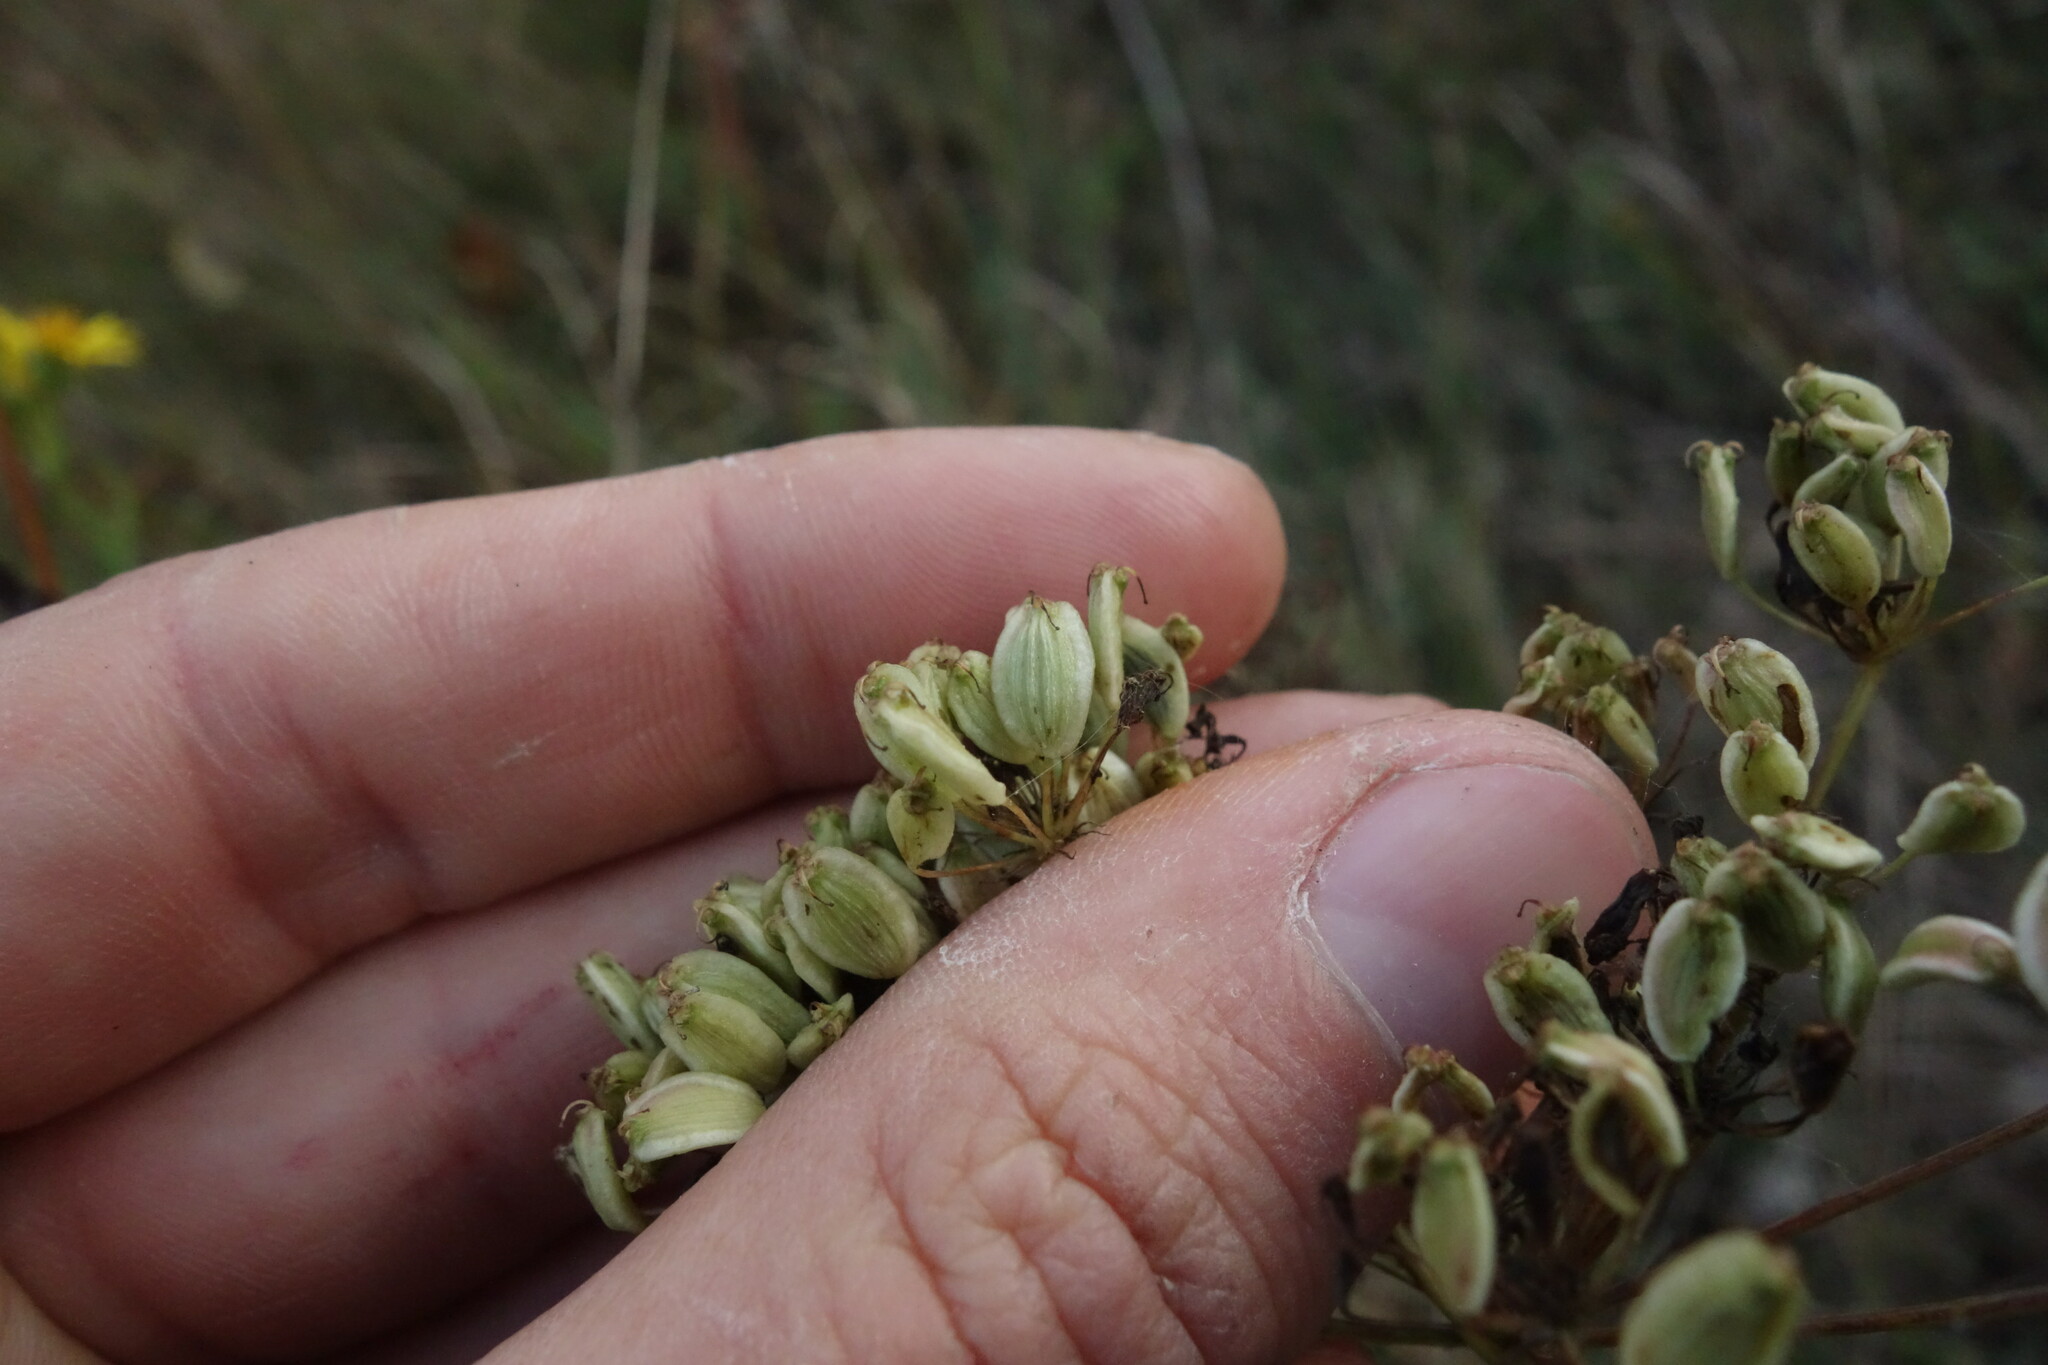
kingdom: Plantae
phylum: Tracheophyta
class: Magnoliopsida
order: Apiales
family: Apiaceae
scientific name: Apiaceae
